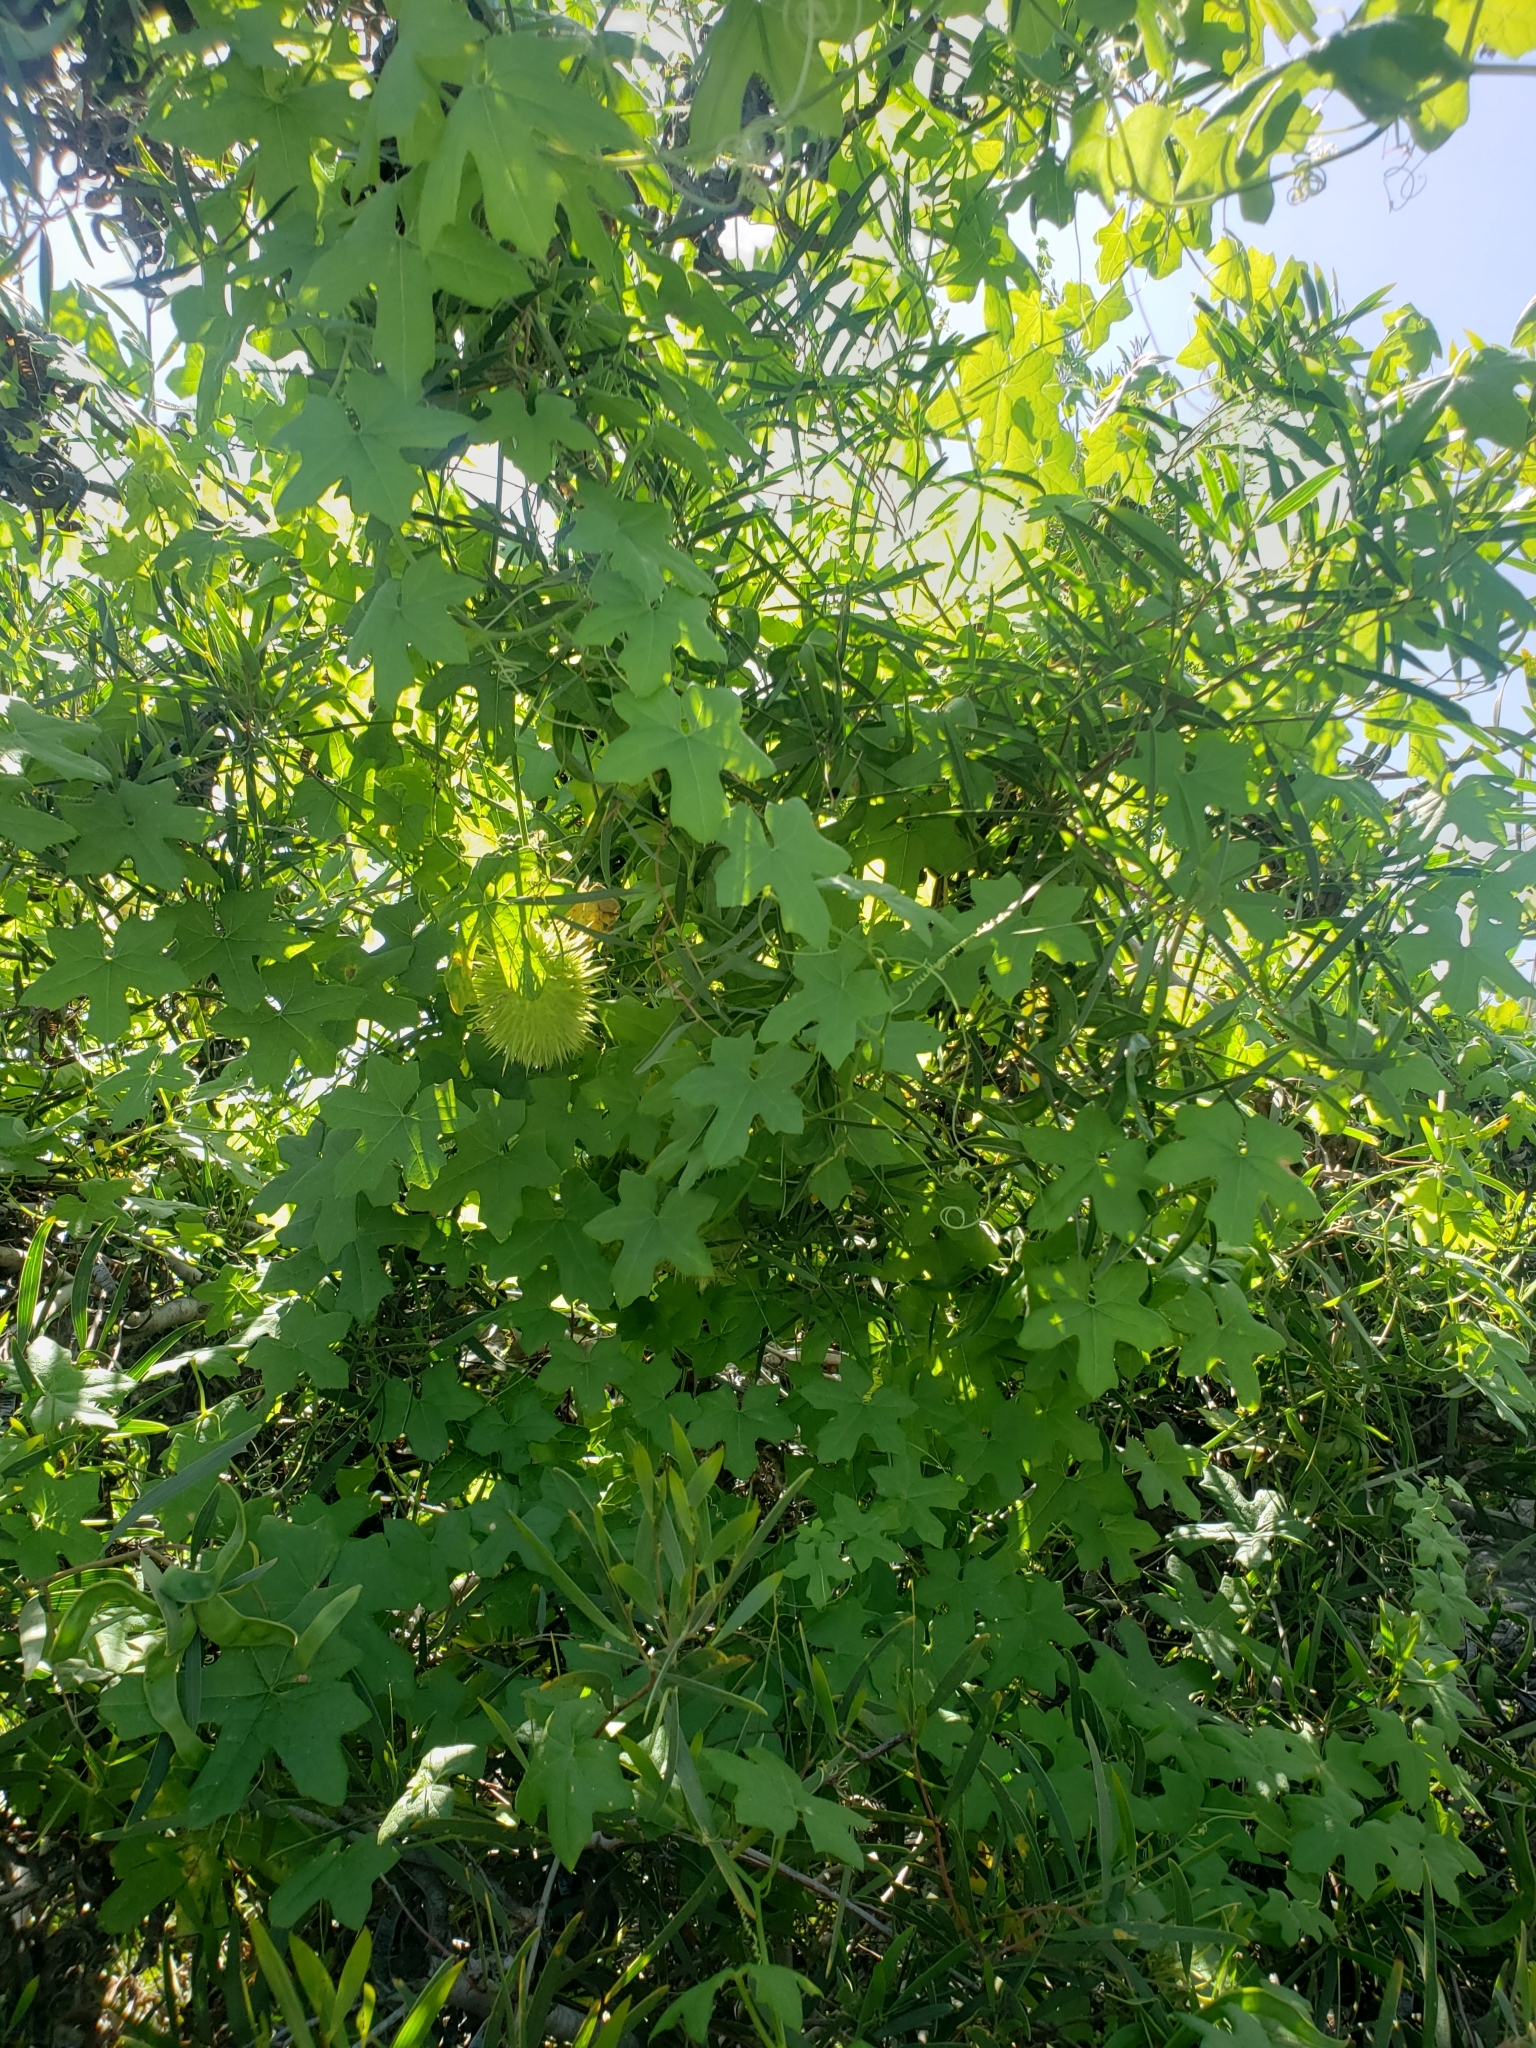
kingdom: Plantae
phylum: Tracheophyta
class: Magnoliopsida
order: Cucurbitales
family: Cucurbitaceae
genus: Marah
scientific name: Marah macrocarpa
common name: Cucamonga manroot
